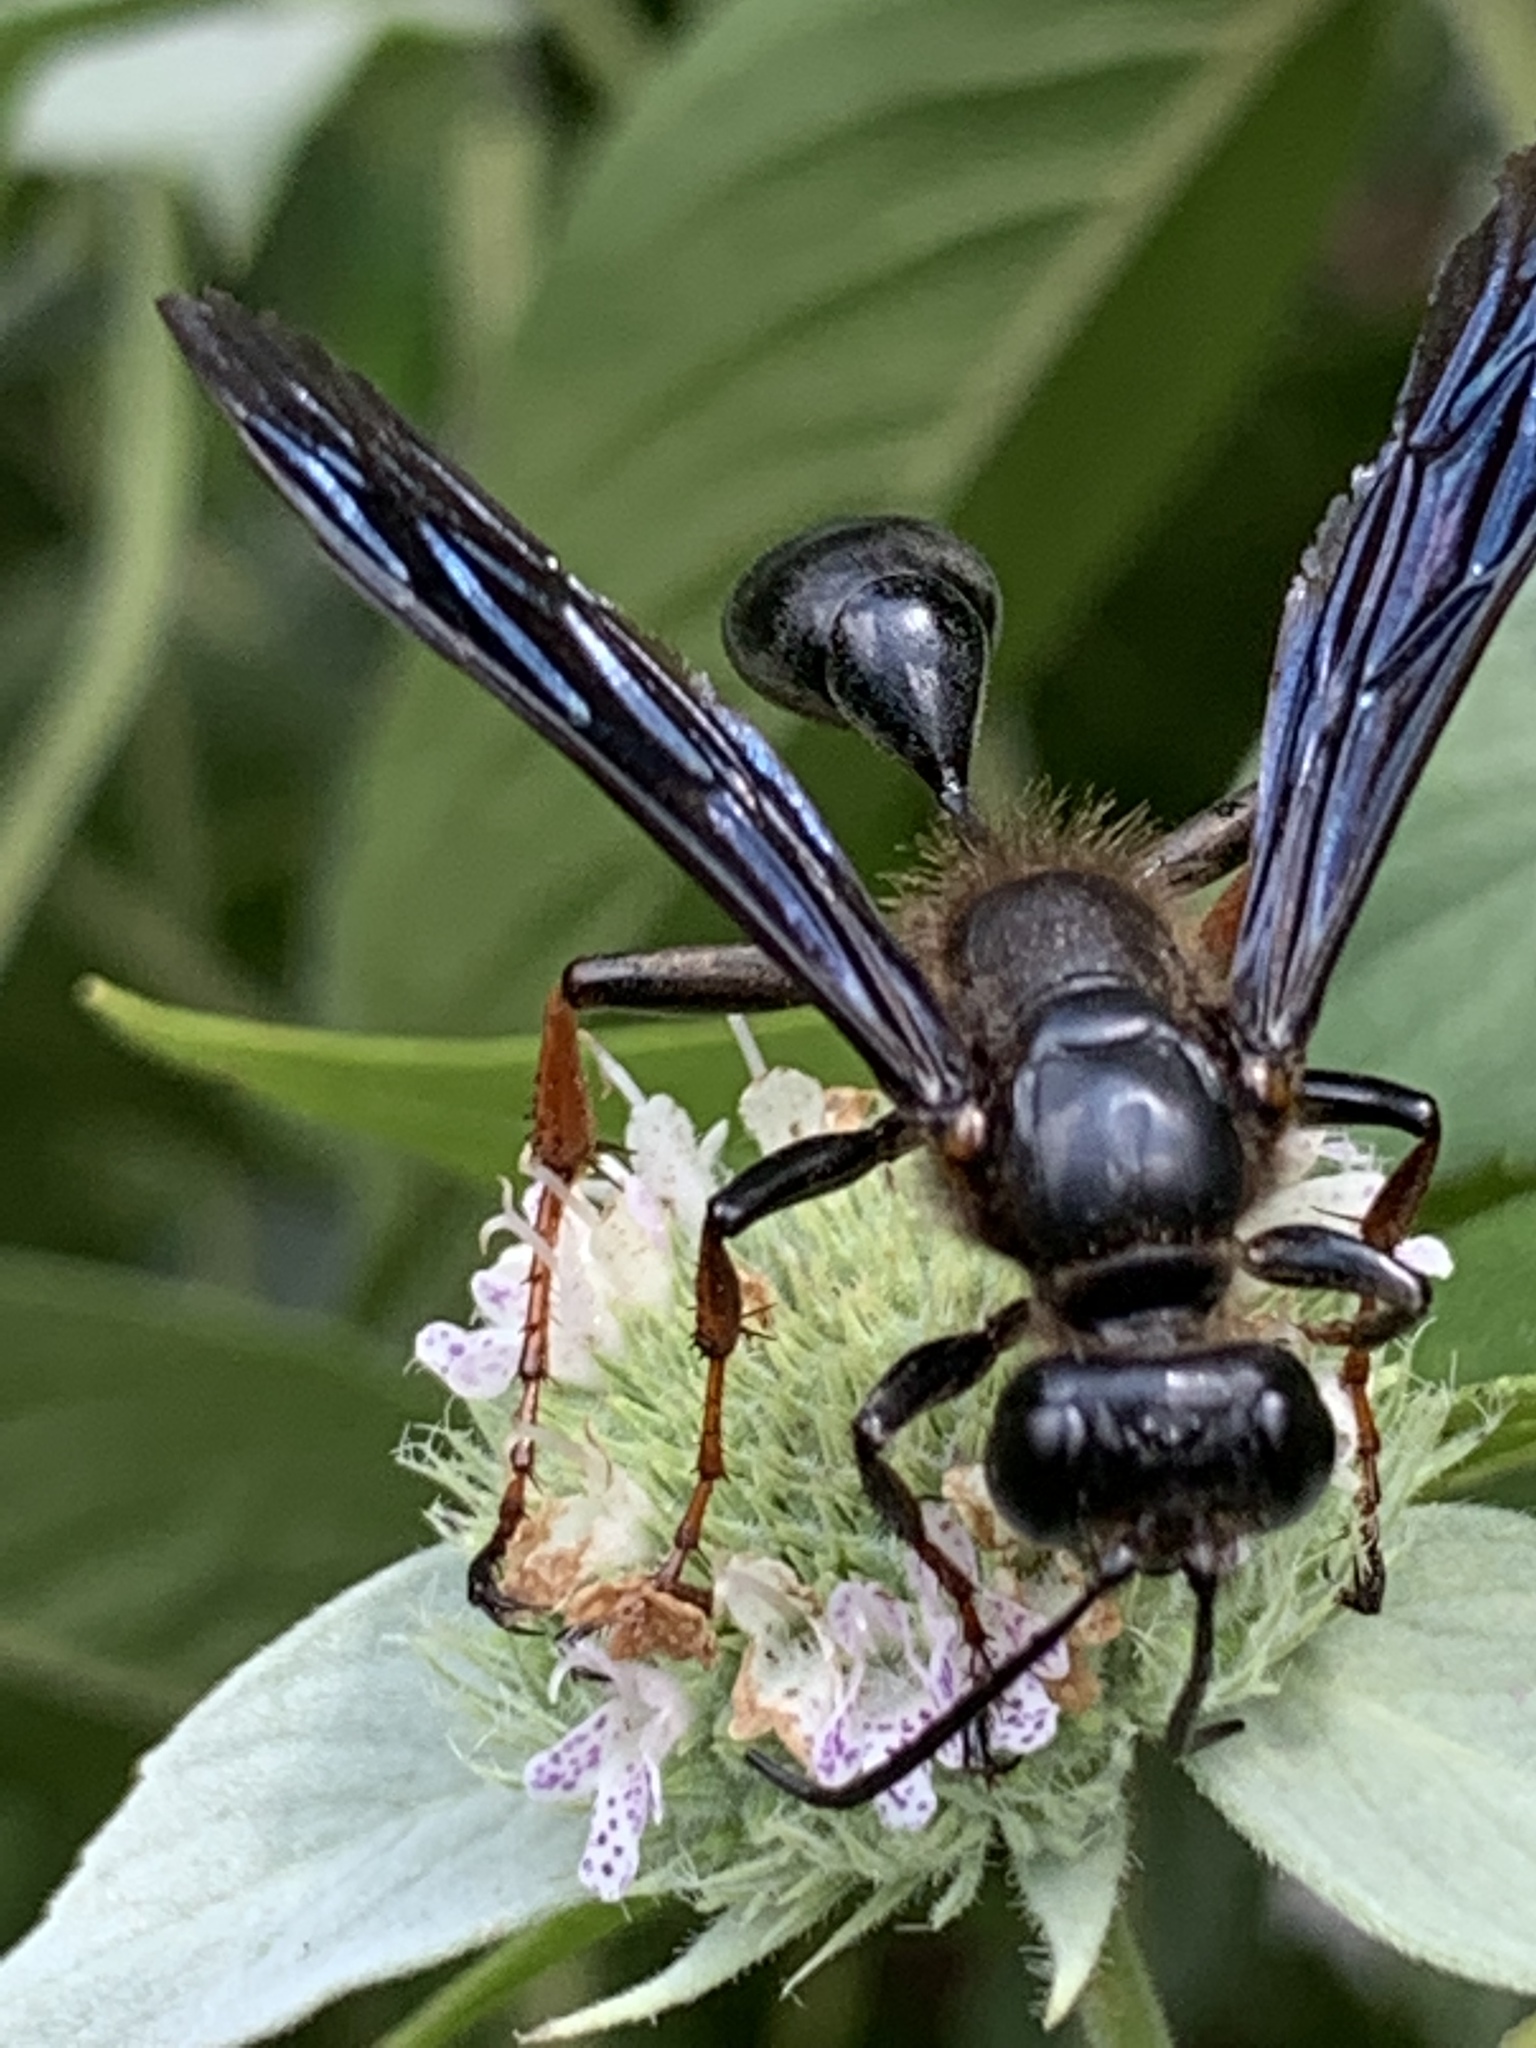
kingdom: Animalia
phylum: Arthropoda
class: Insecta
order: Hymenoptera
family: Sphecidae
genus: Isodontia
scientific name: Isodontia auripes
